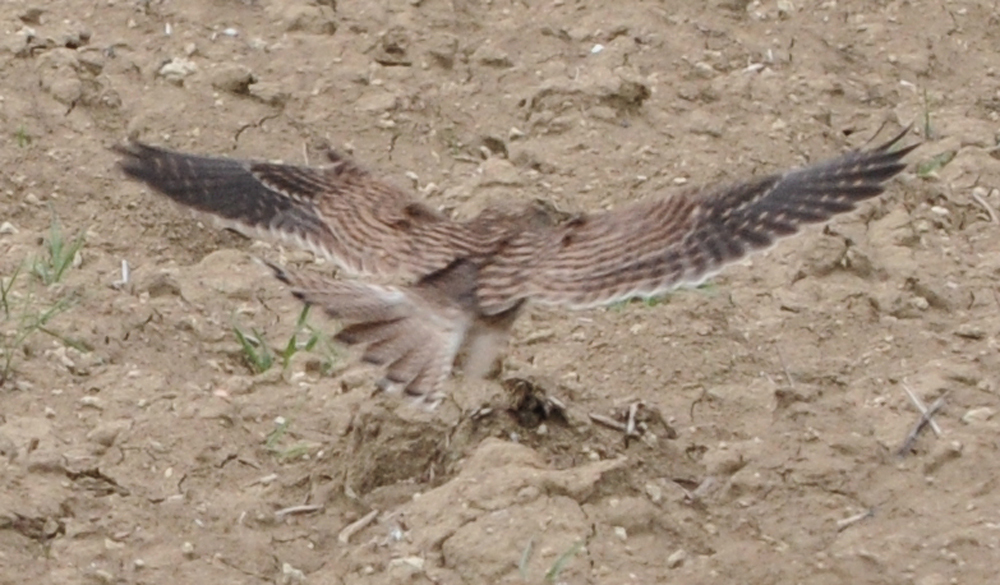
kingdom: Animalia
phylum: Chordata
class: Aves
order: Falconiformes
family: Falconidae
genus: Falco
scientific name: Falco tinnunculus
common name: Common kestrel
